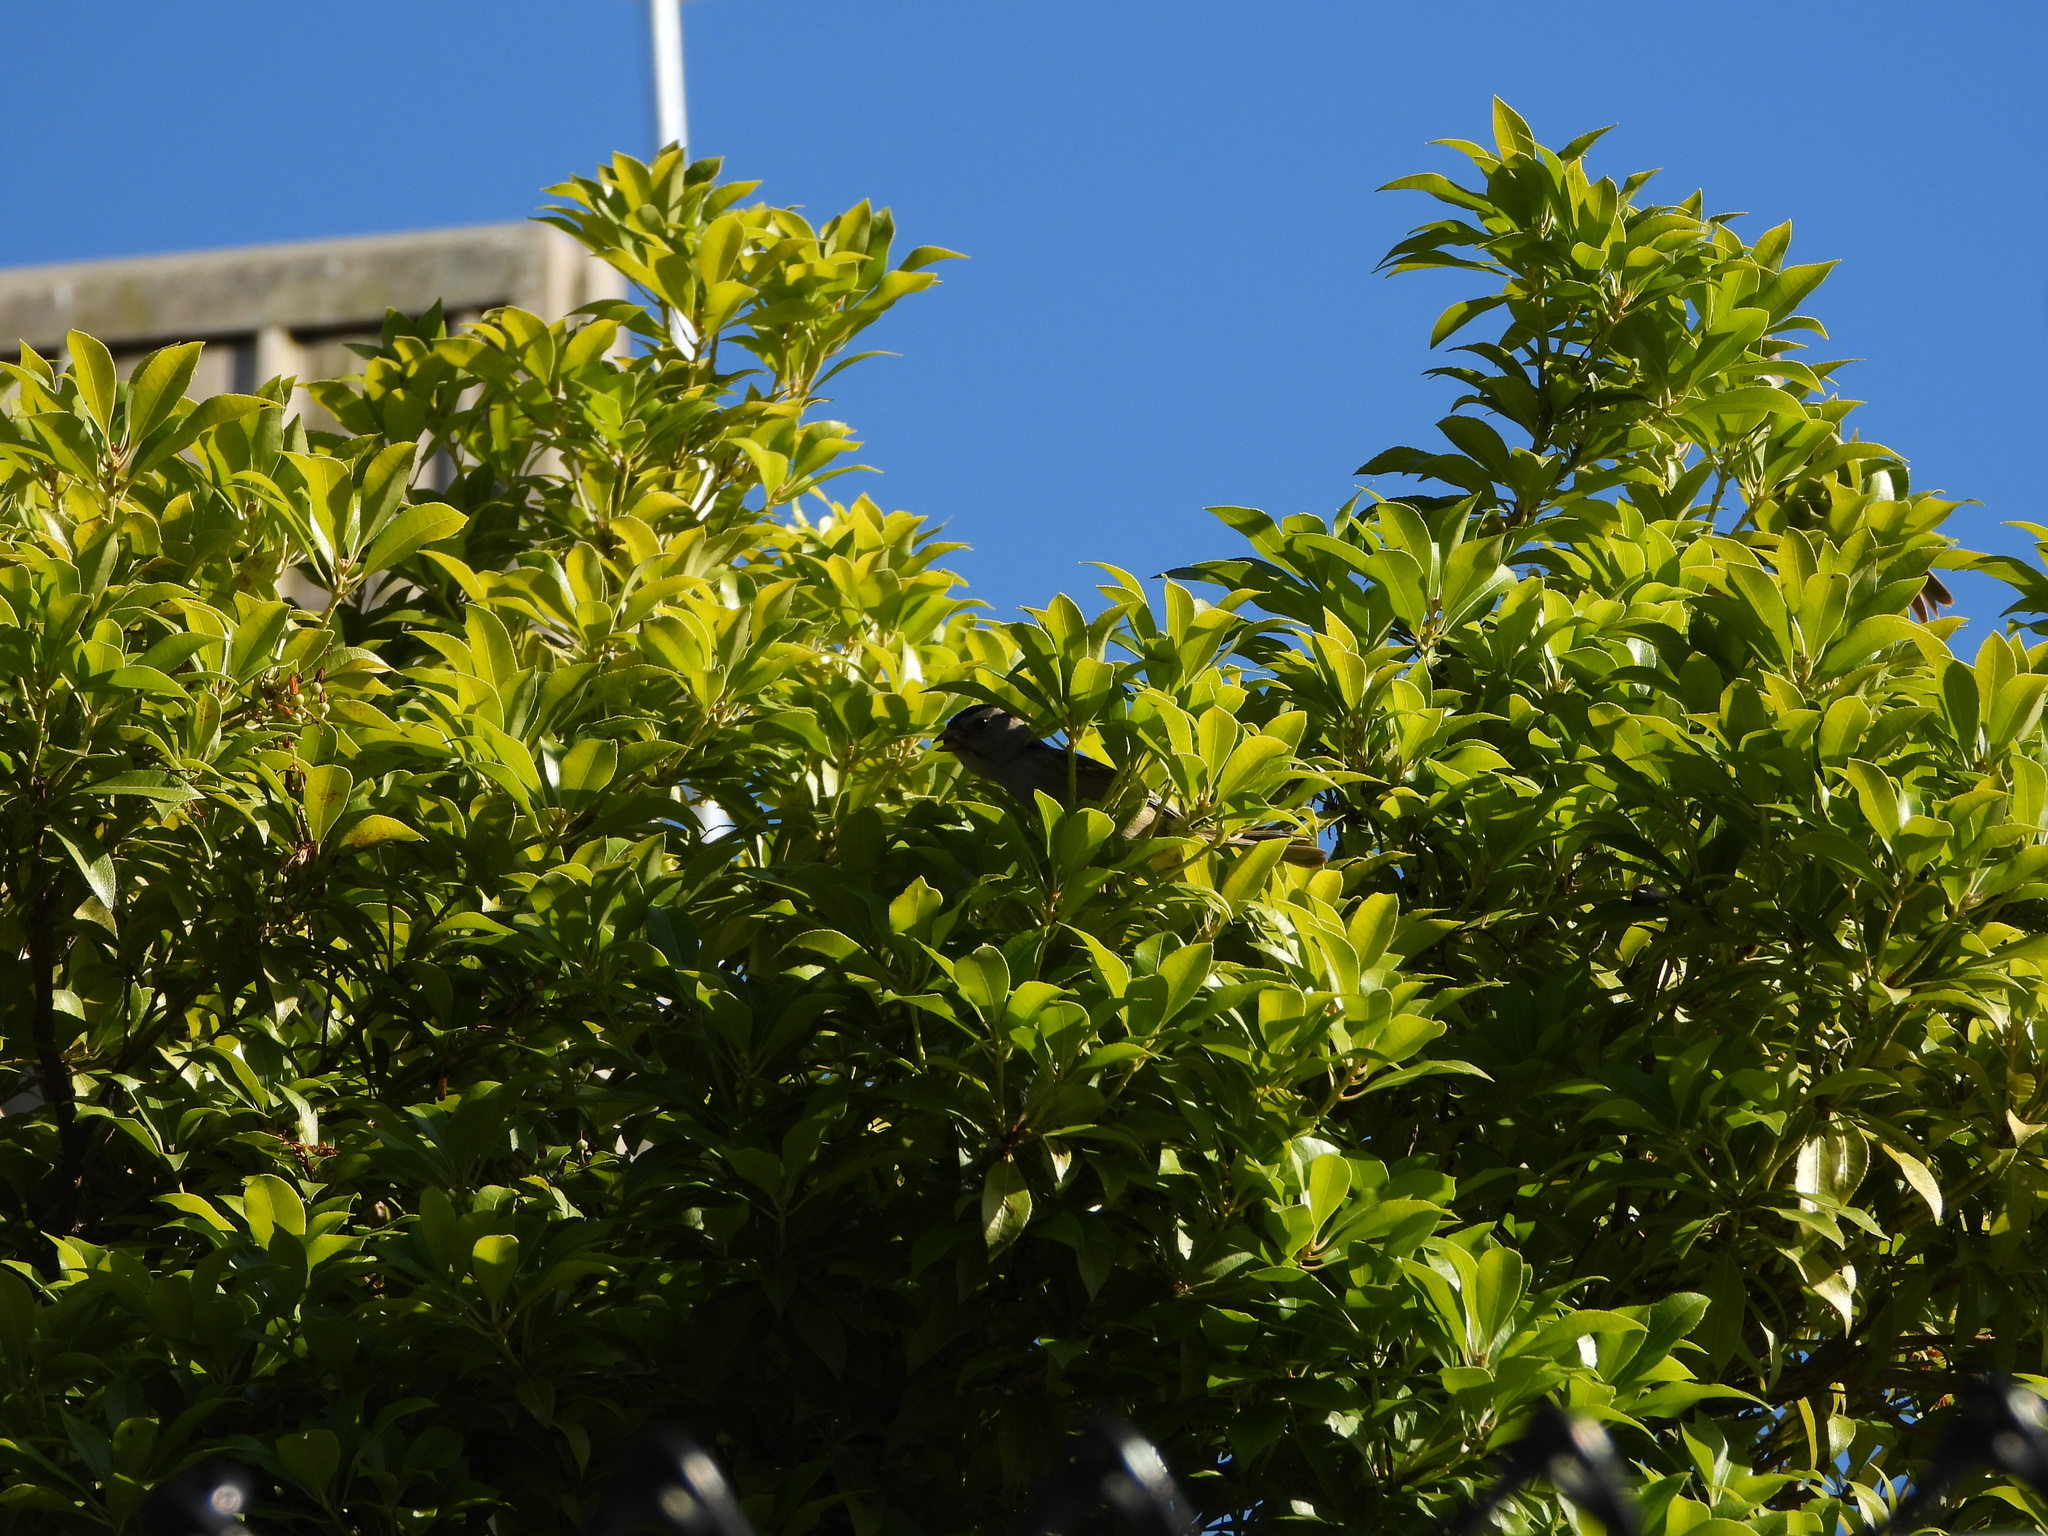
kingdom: Animalia
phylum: Chordata
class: Aves
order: Passeriformes
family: Passerellidae
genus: Zonotrichia
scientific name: Zonotrichia leucophrys
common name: White-crowned sparrow
